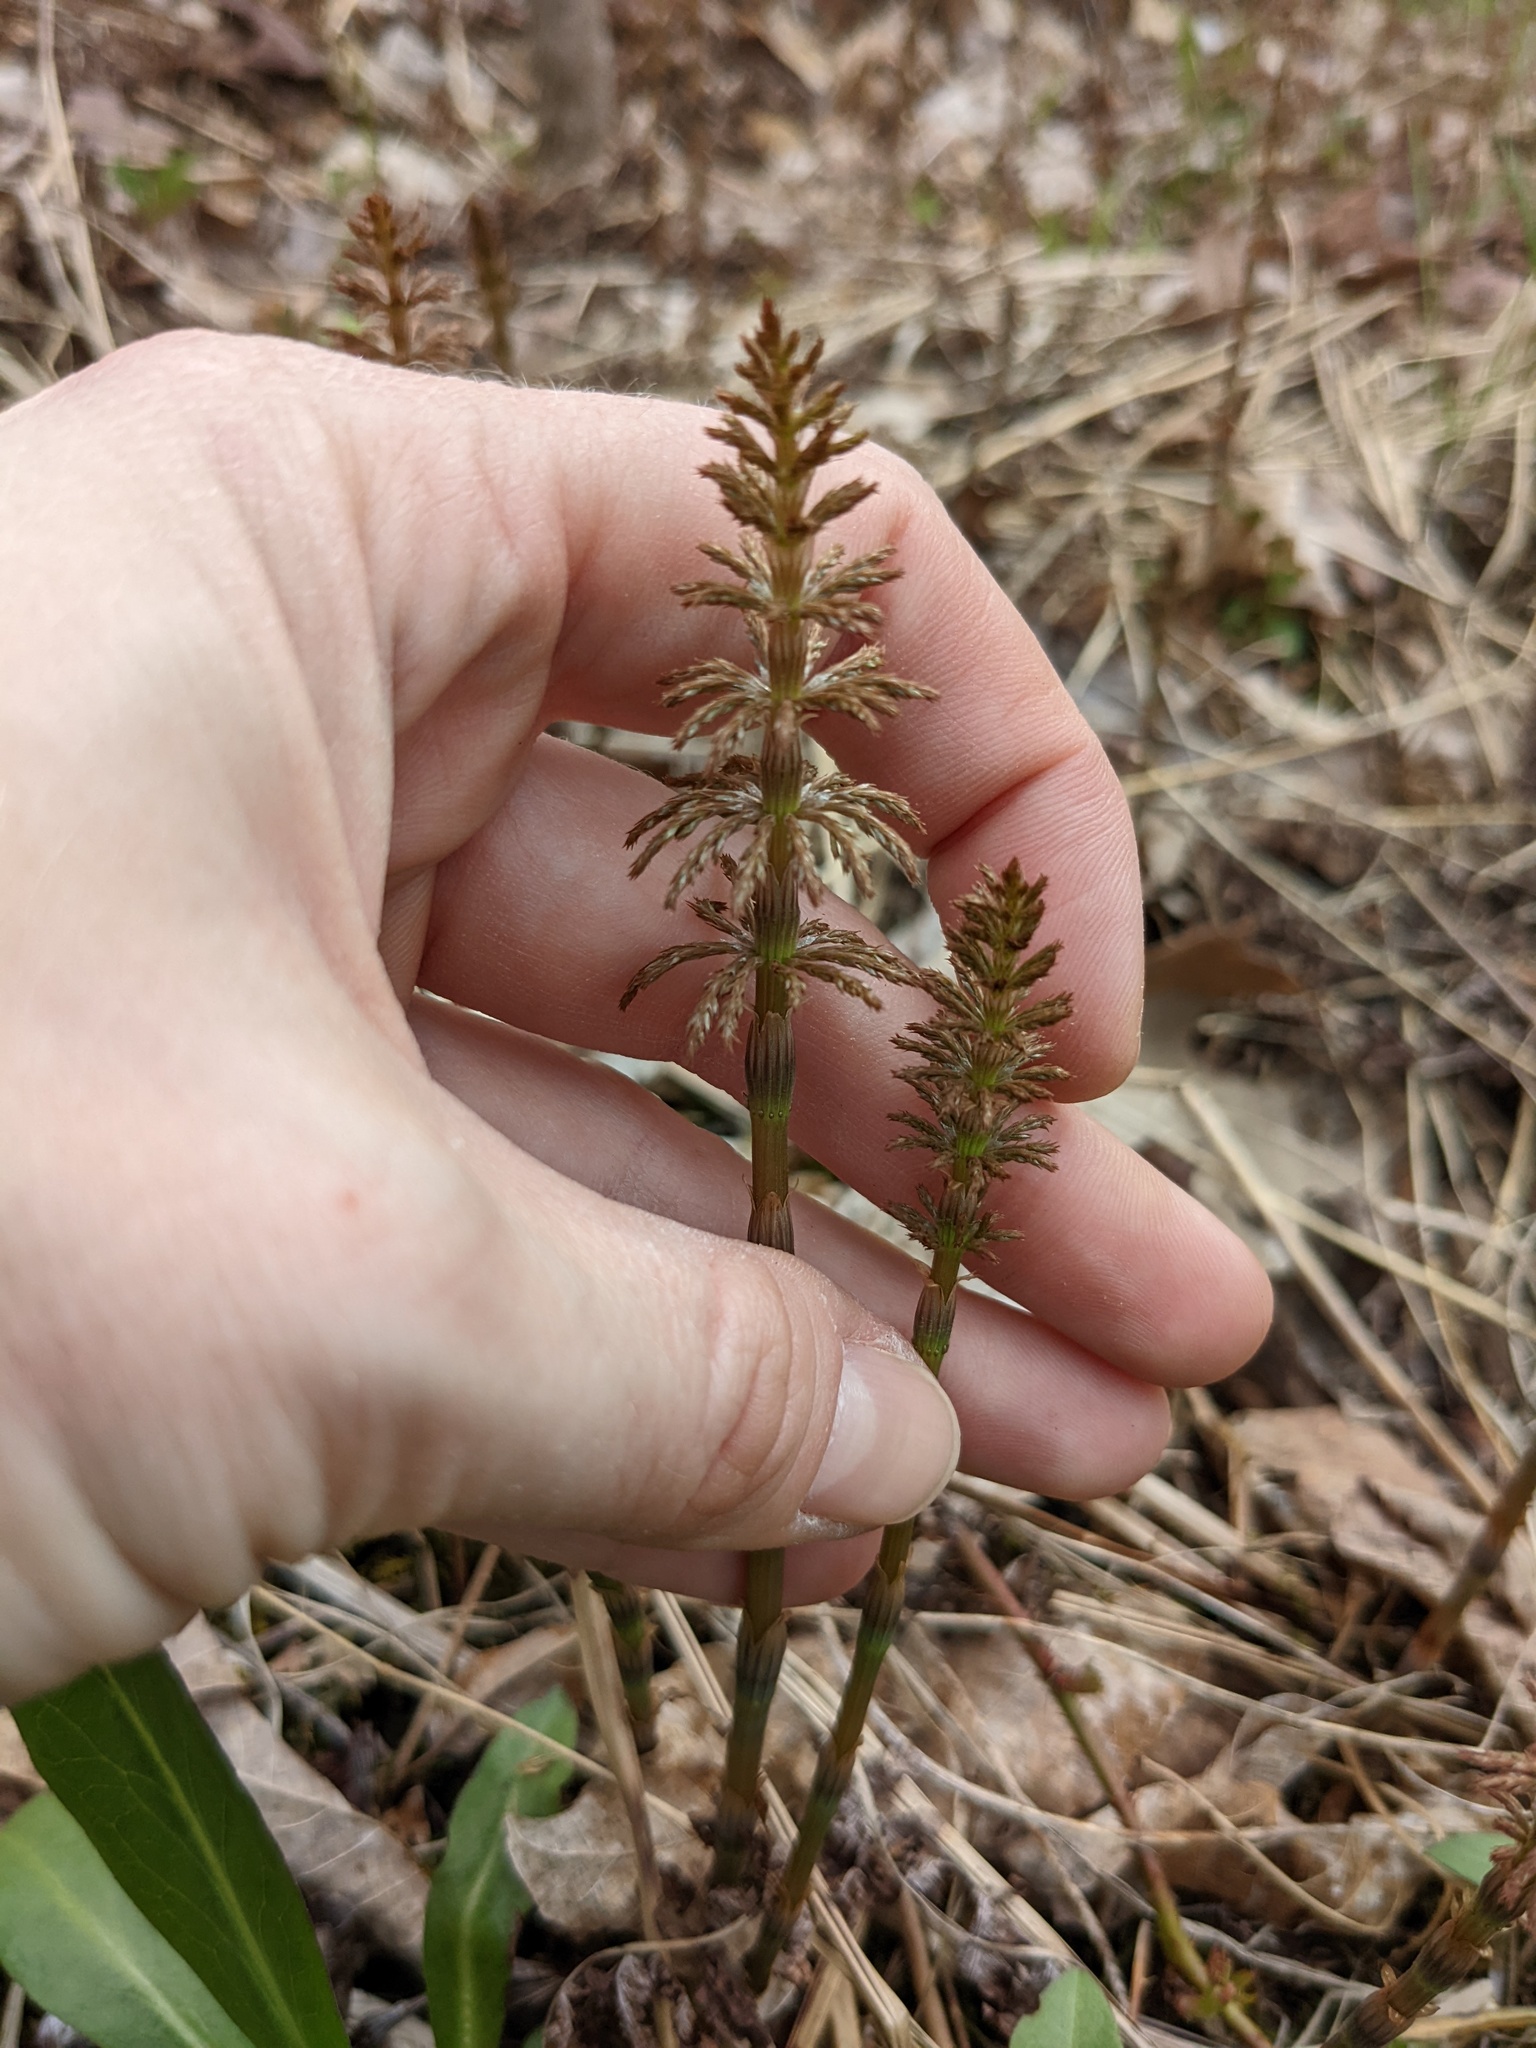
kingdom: Plantae
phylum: Tracheophyta
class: Polypodiopsida
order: Equisetales
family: Equisetaceae
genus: Equisetum
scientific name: Equisetum sylvaticum
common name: Wood horsetail
